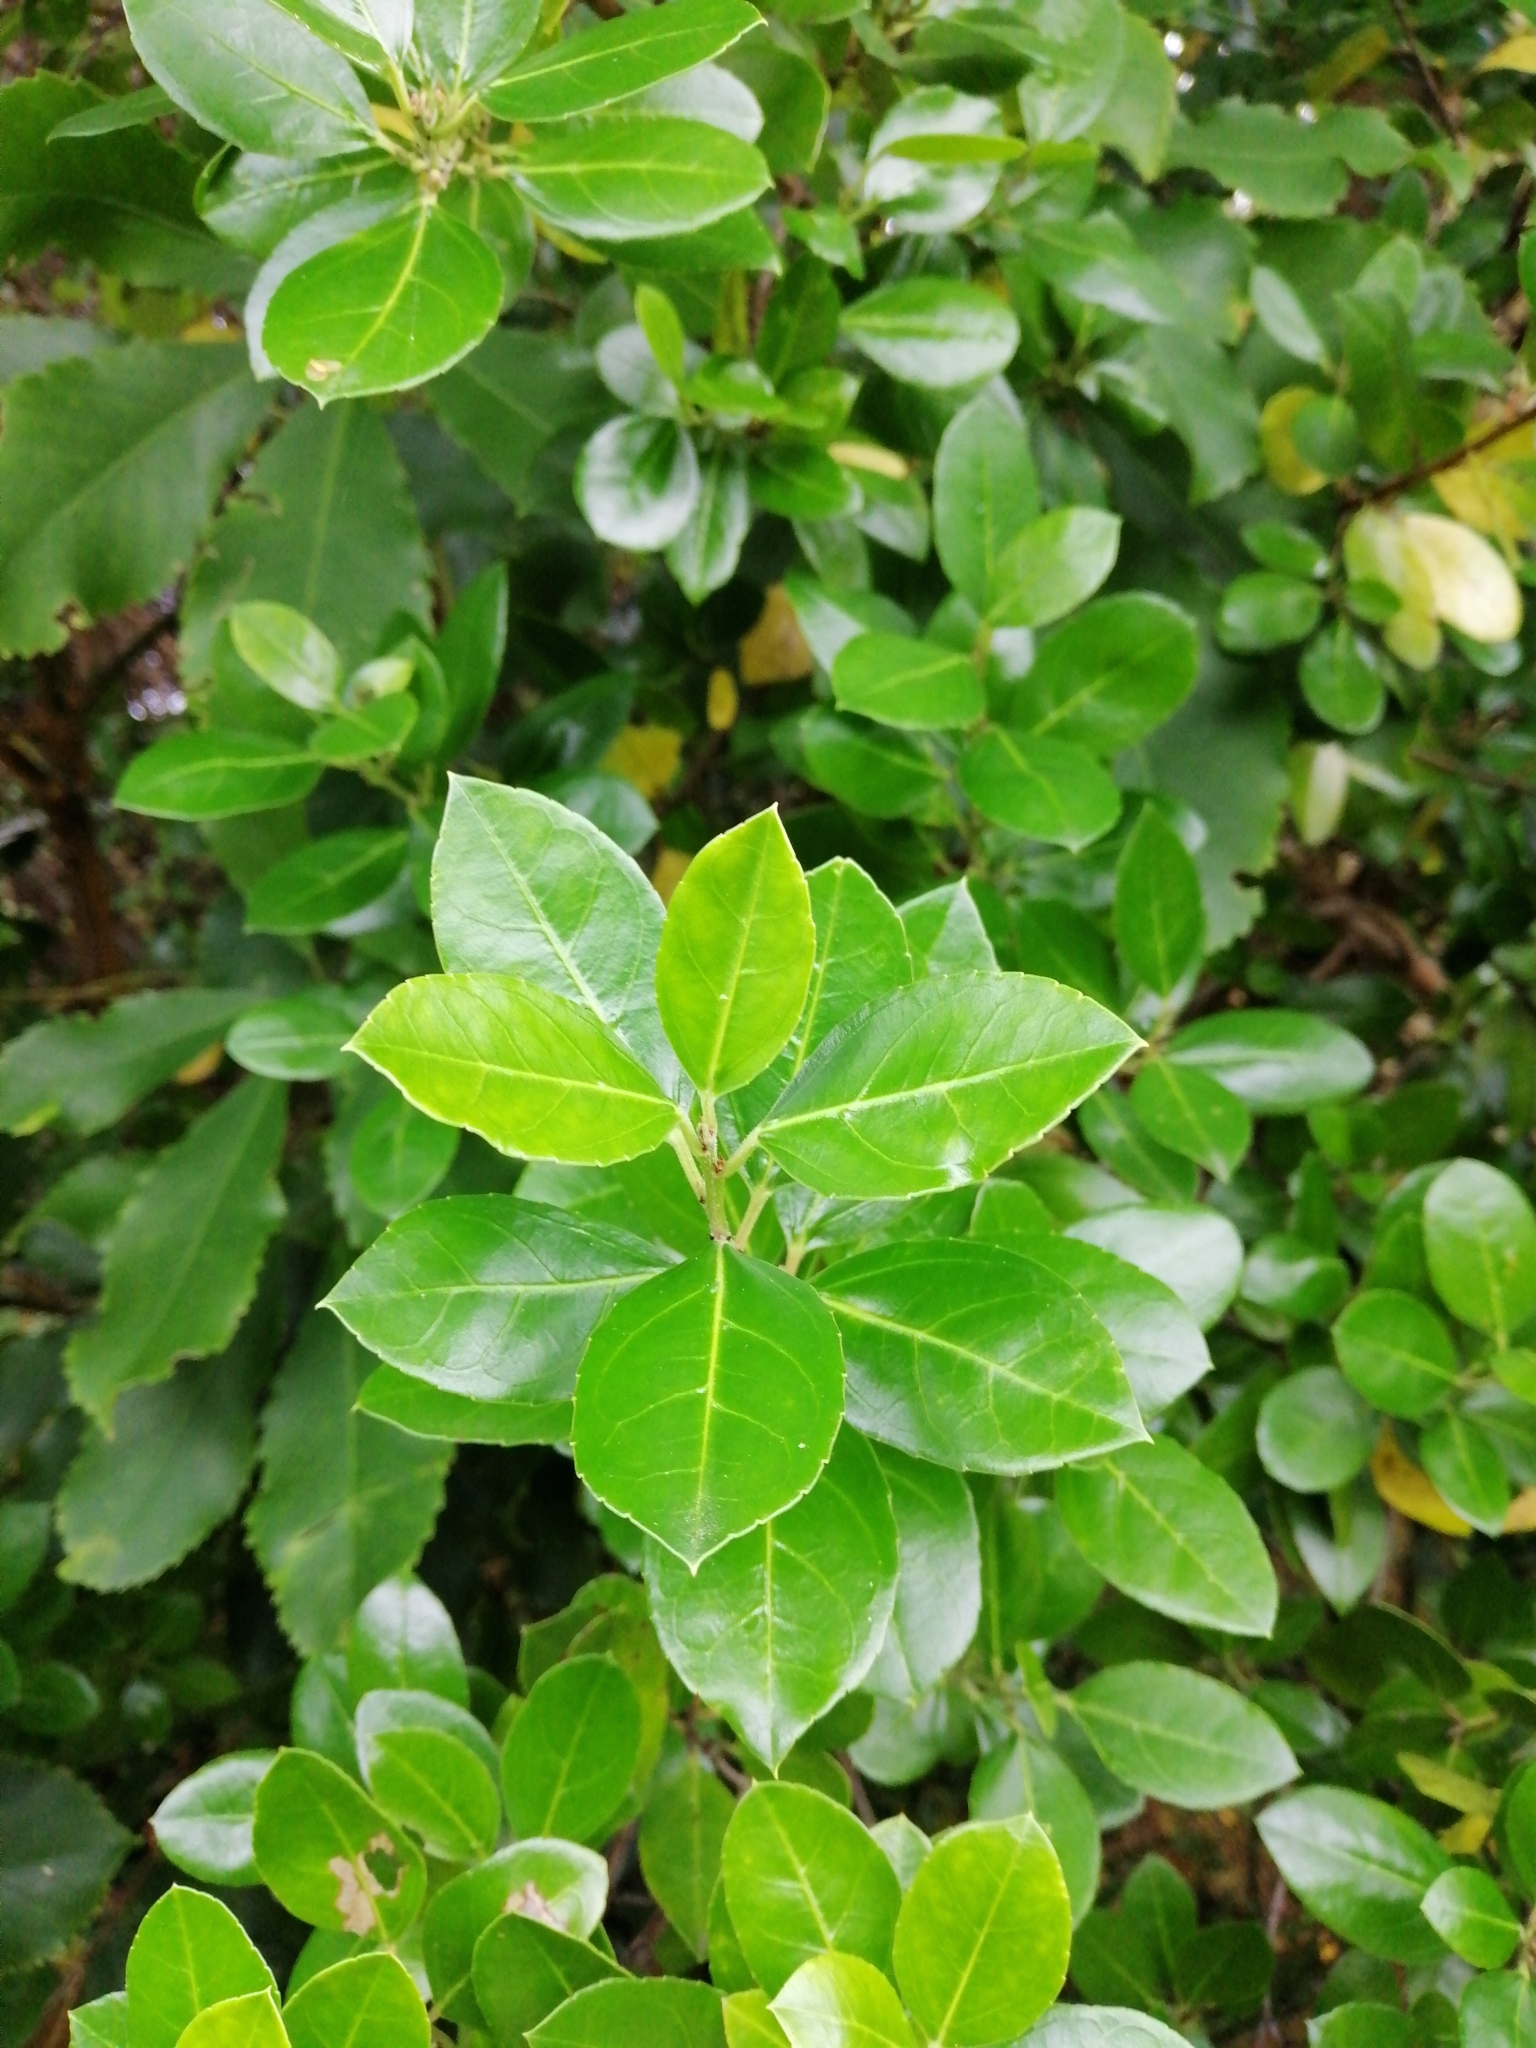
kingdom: Plantae
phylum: Tracheophyta
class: Magnoliopsida
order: Rosales
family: Rhamnaceae
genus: Rhamnus
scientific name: Rhamnus alaternus
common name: Mediterranean buckthorn
